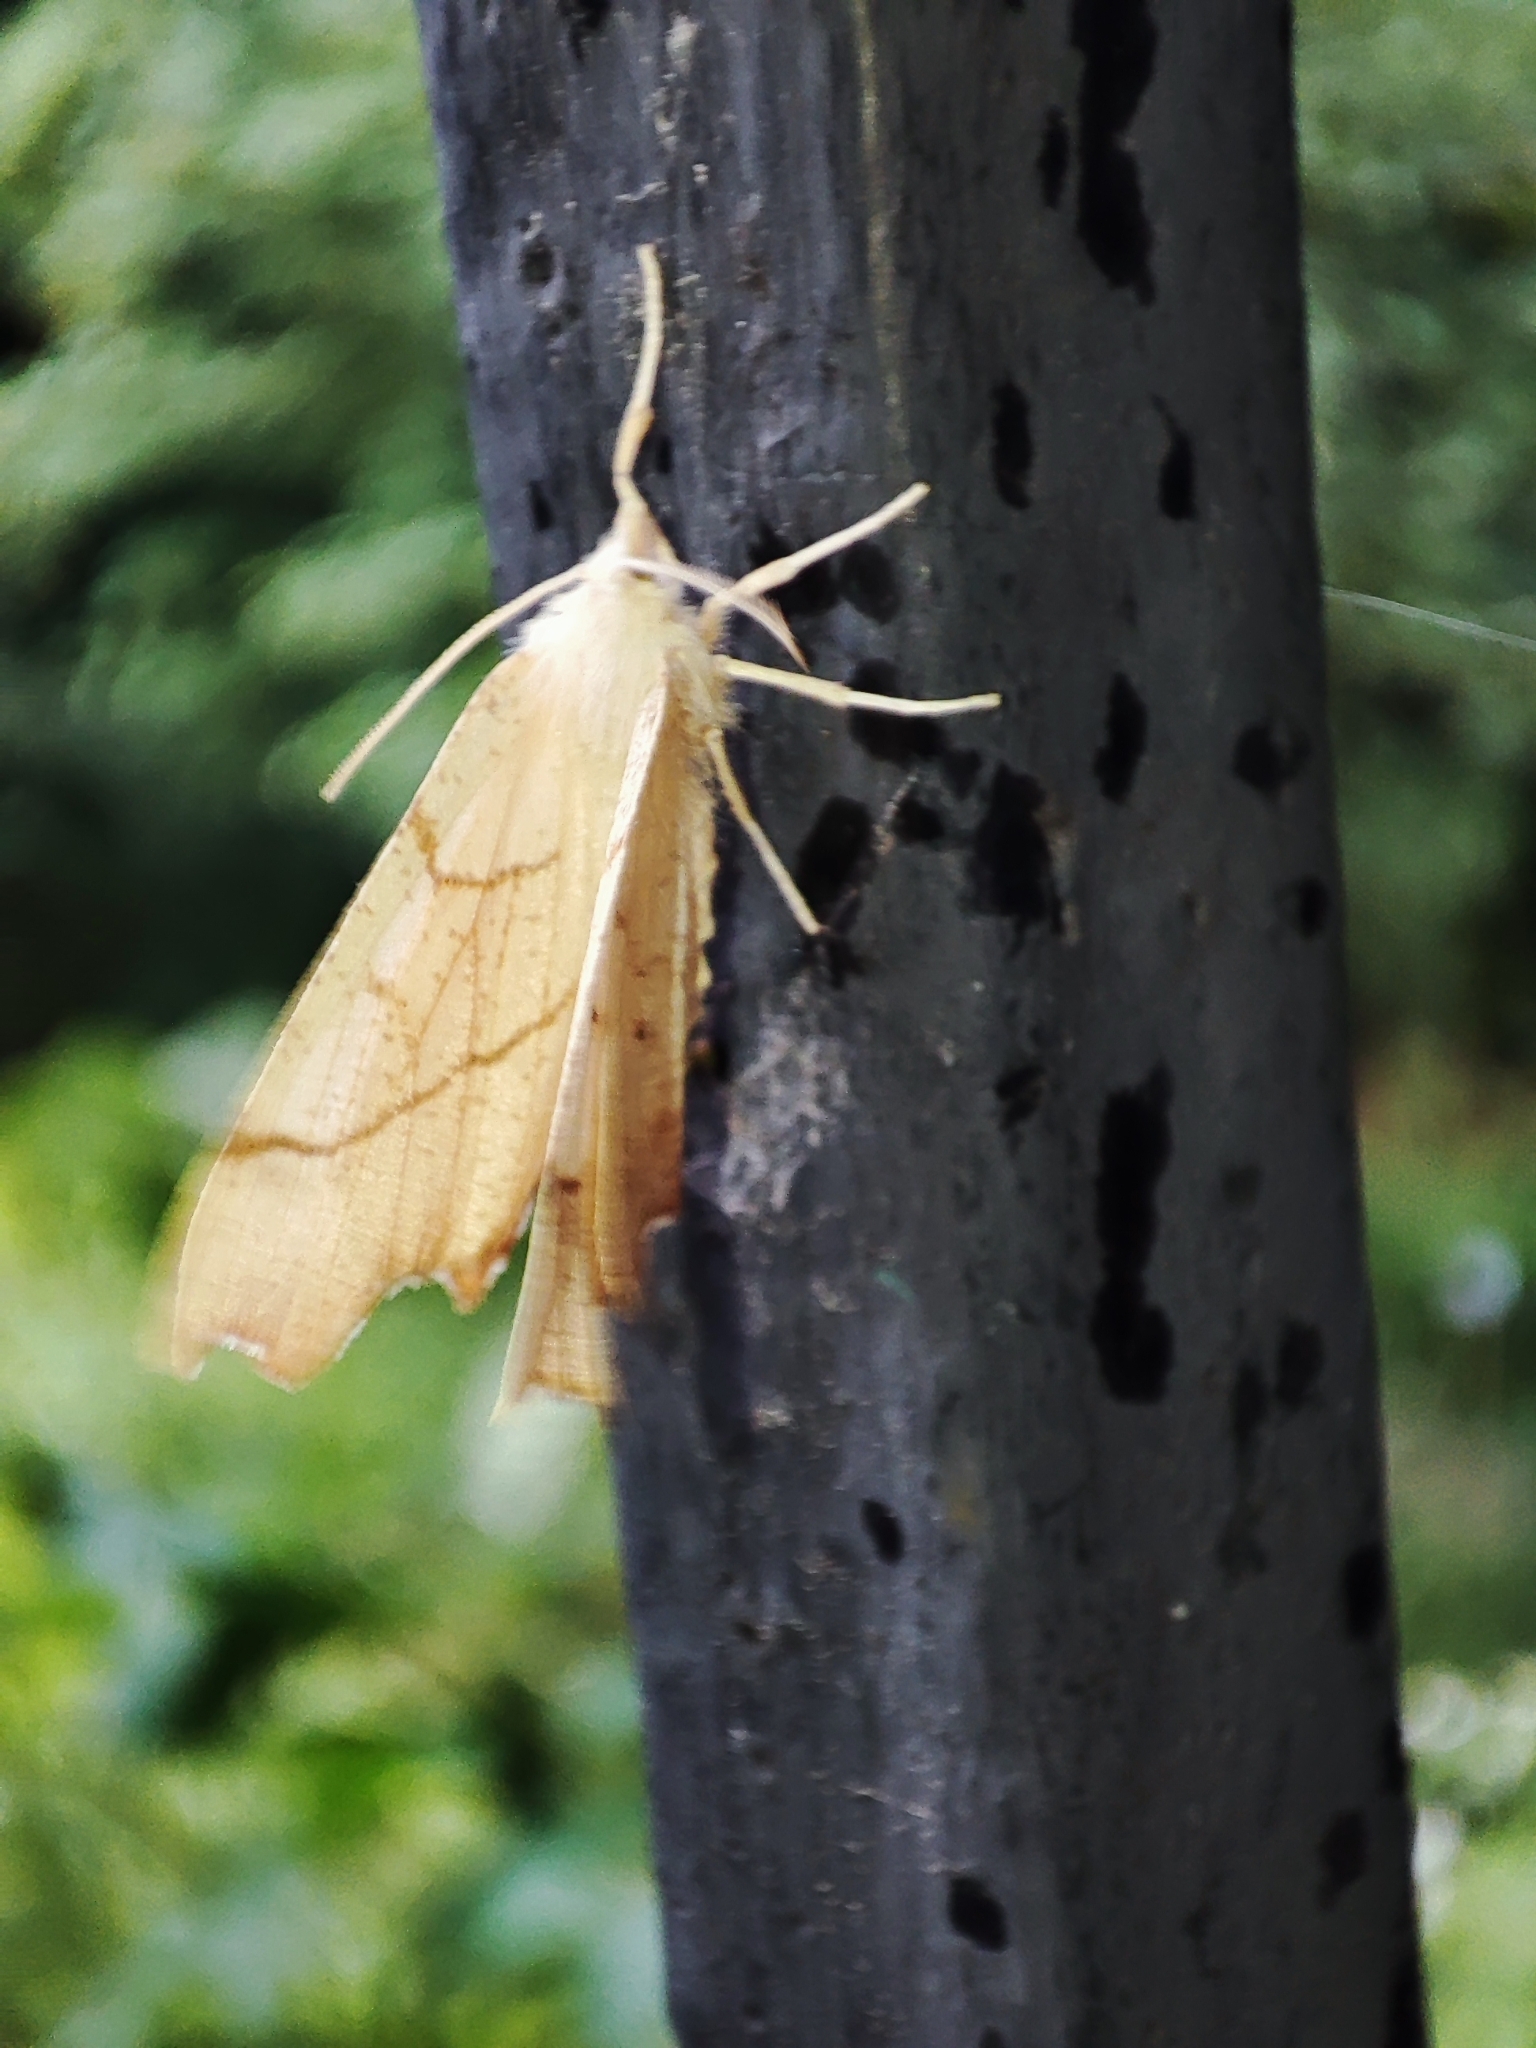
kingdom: Animalia
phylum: Arthropoda
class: Insecta
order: Lepidoptera
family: Geometridae
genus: Ennomos
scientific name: Ennomos quercinaria
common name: August thorn
